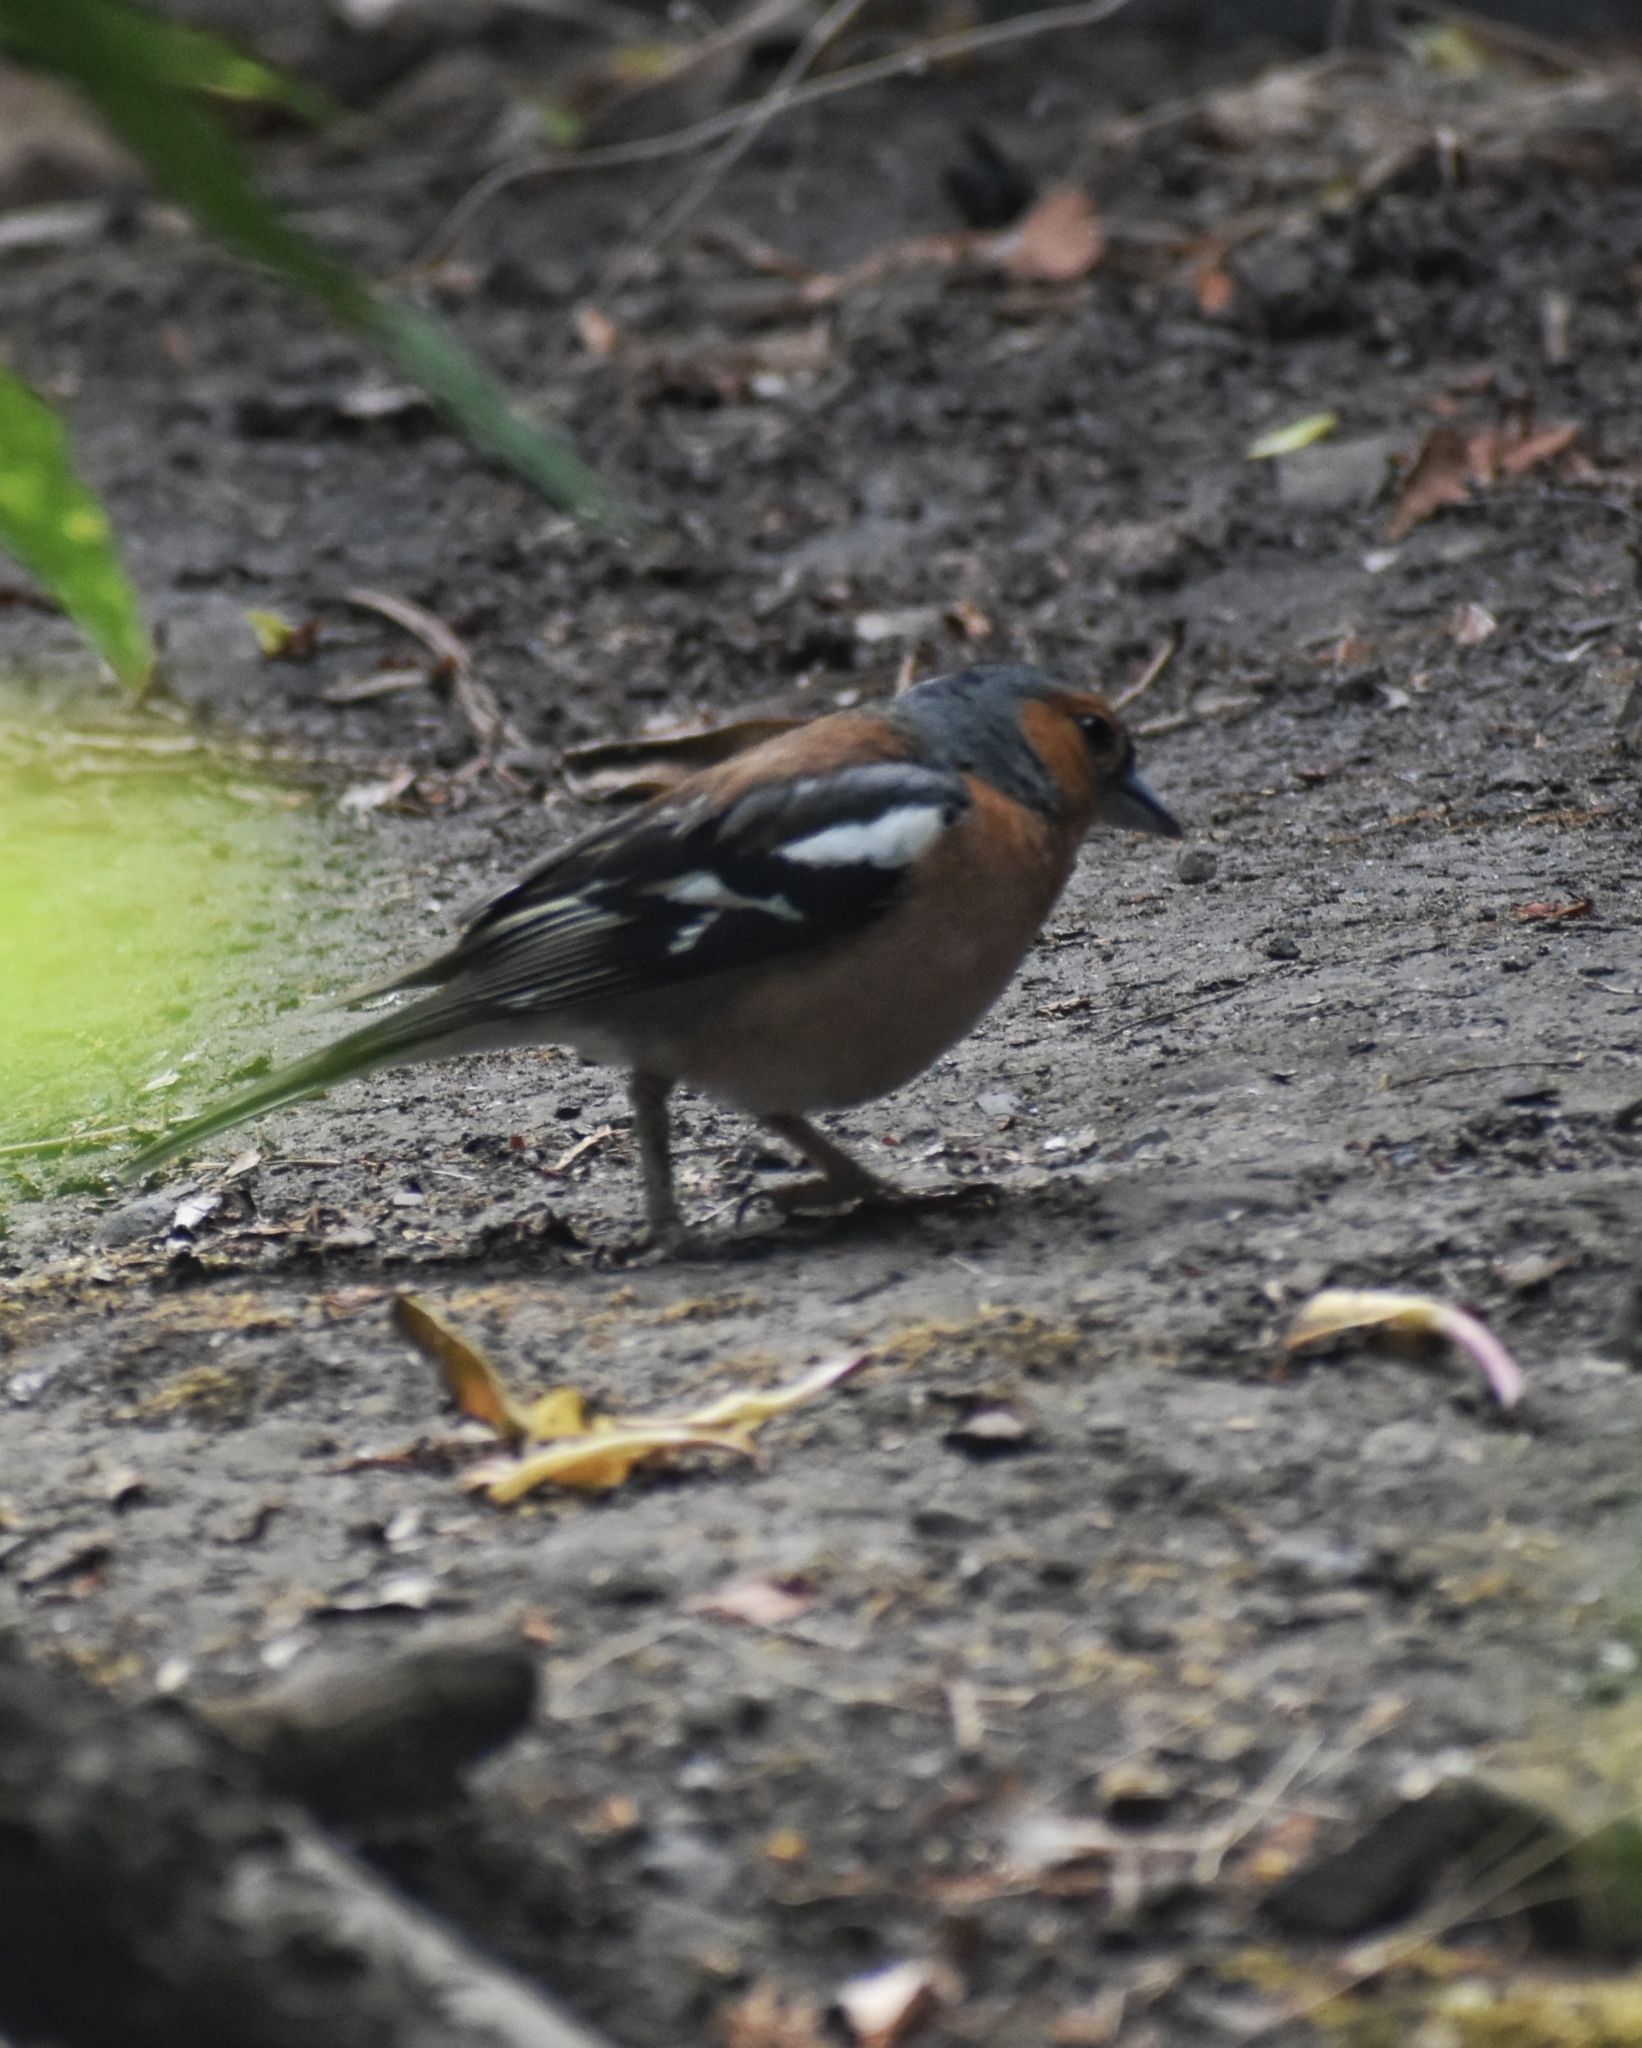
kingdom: Animalia
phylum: Chordata
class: Aves
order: Passeriformes
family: Fringillidae
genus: Fringilla
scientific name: Fringilla coelebs
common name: Common chaffinch
